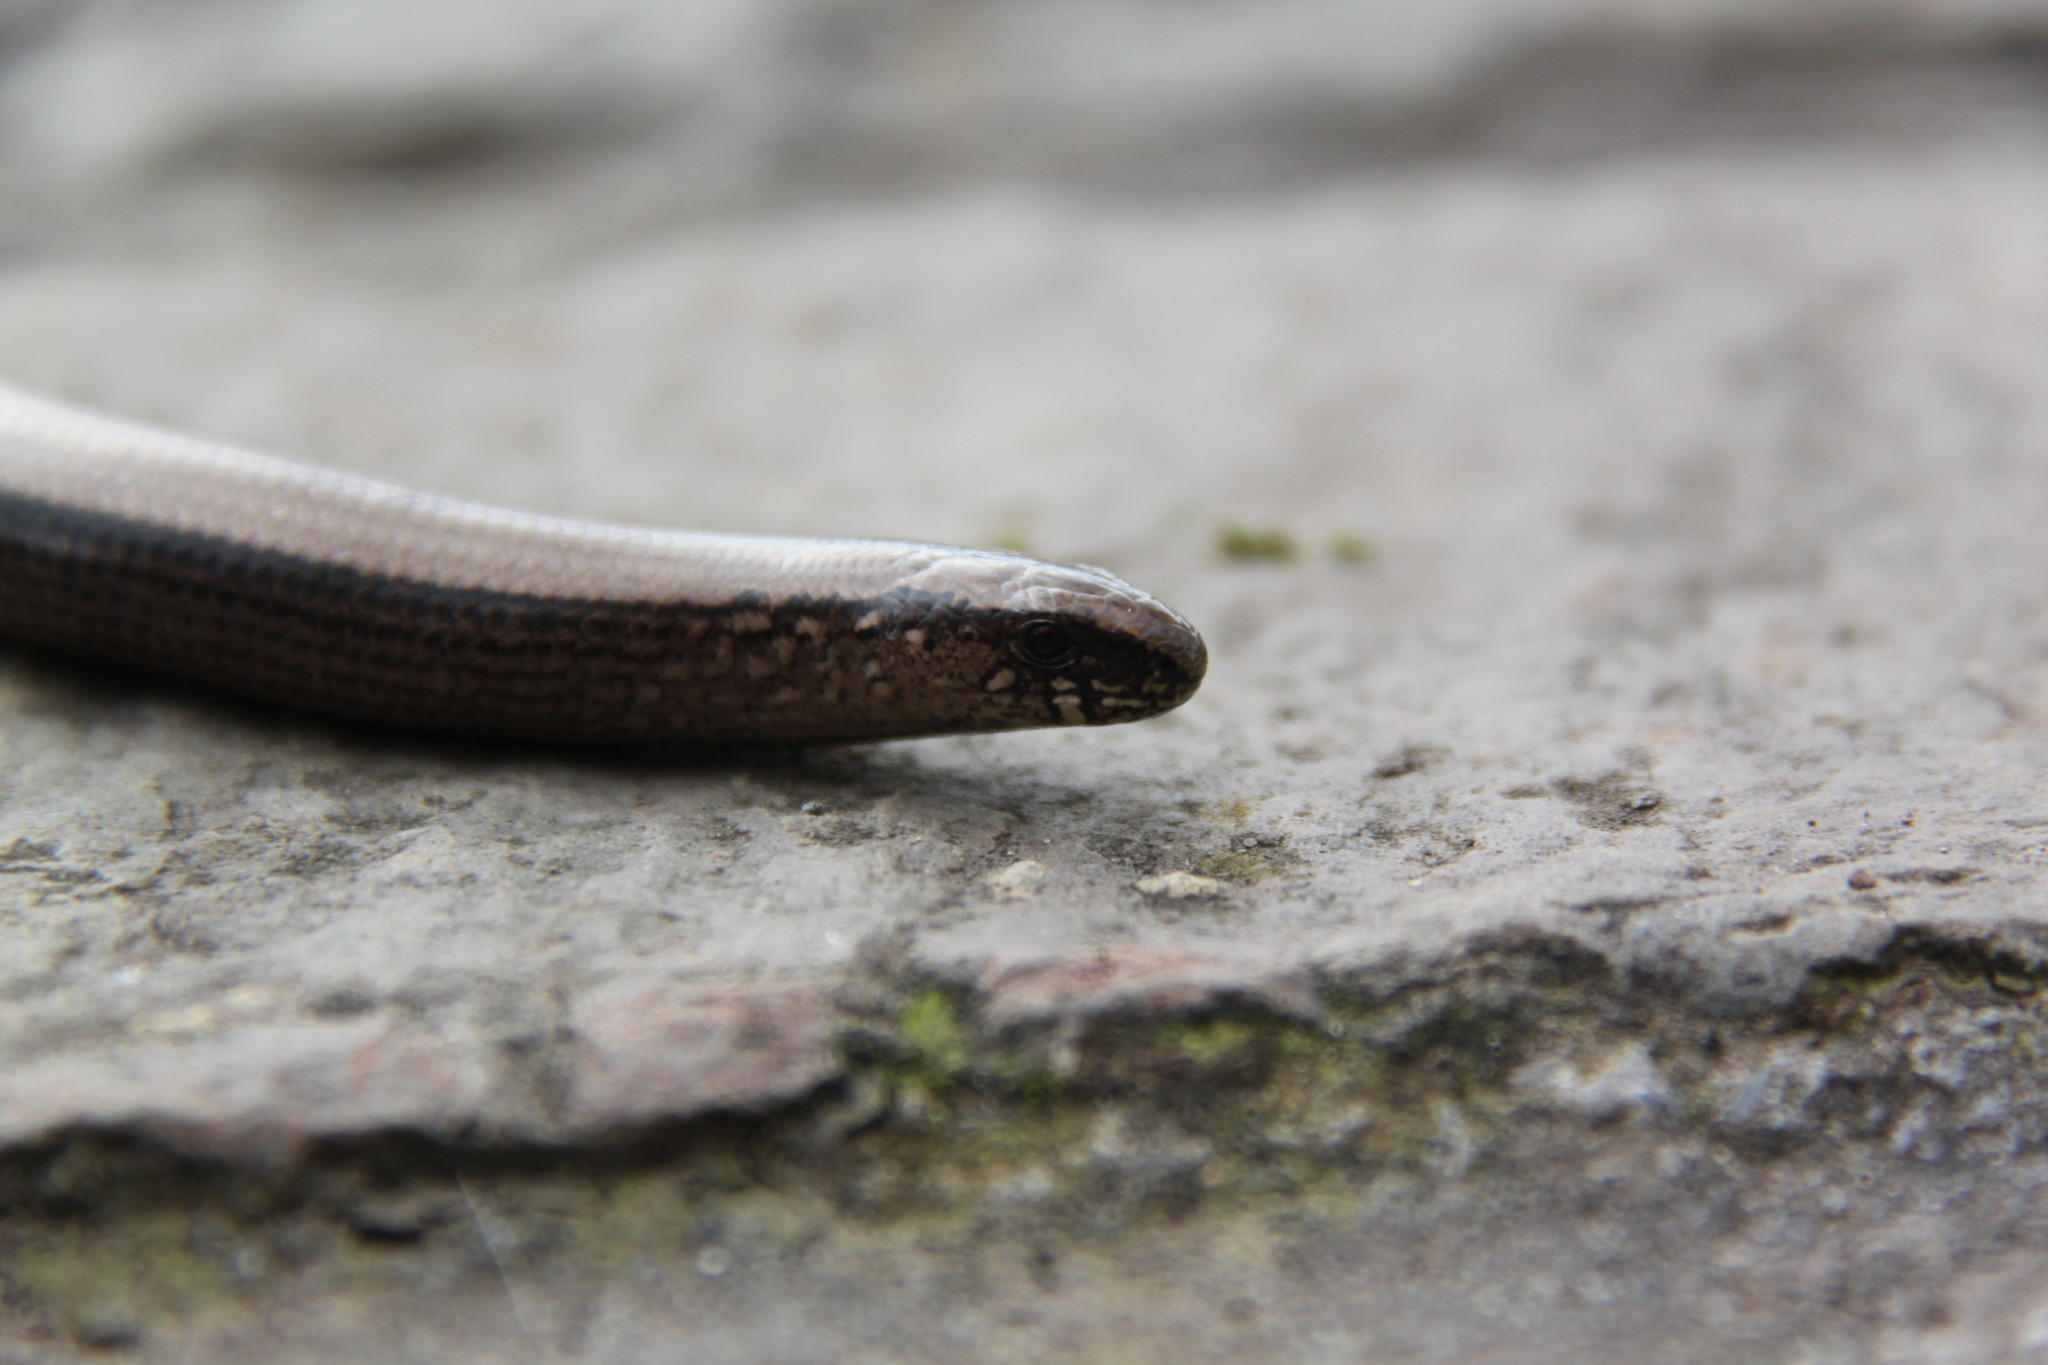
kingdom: Animalia
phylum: Chordata
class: Squamata
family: Anguidae
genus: Anguis
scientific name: Anguis fragilis
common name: Slow worm
